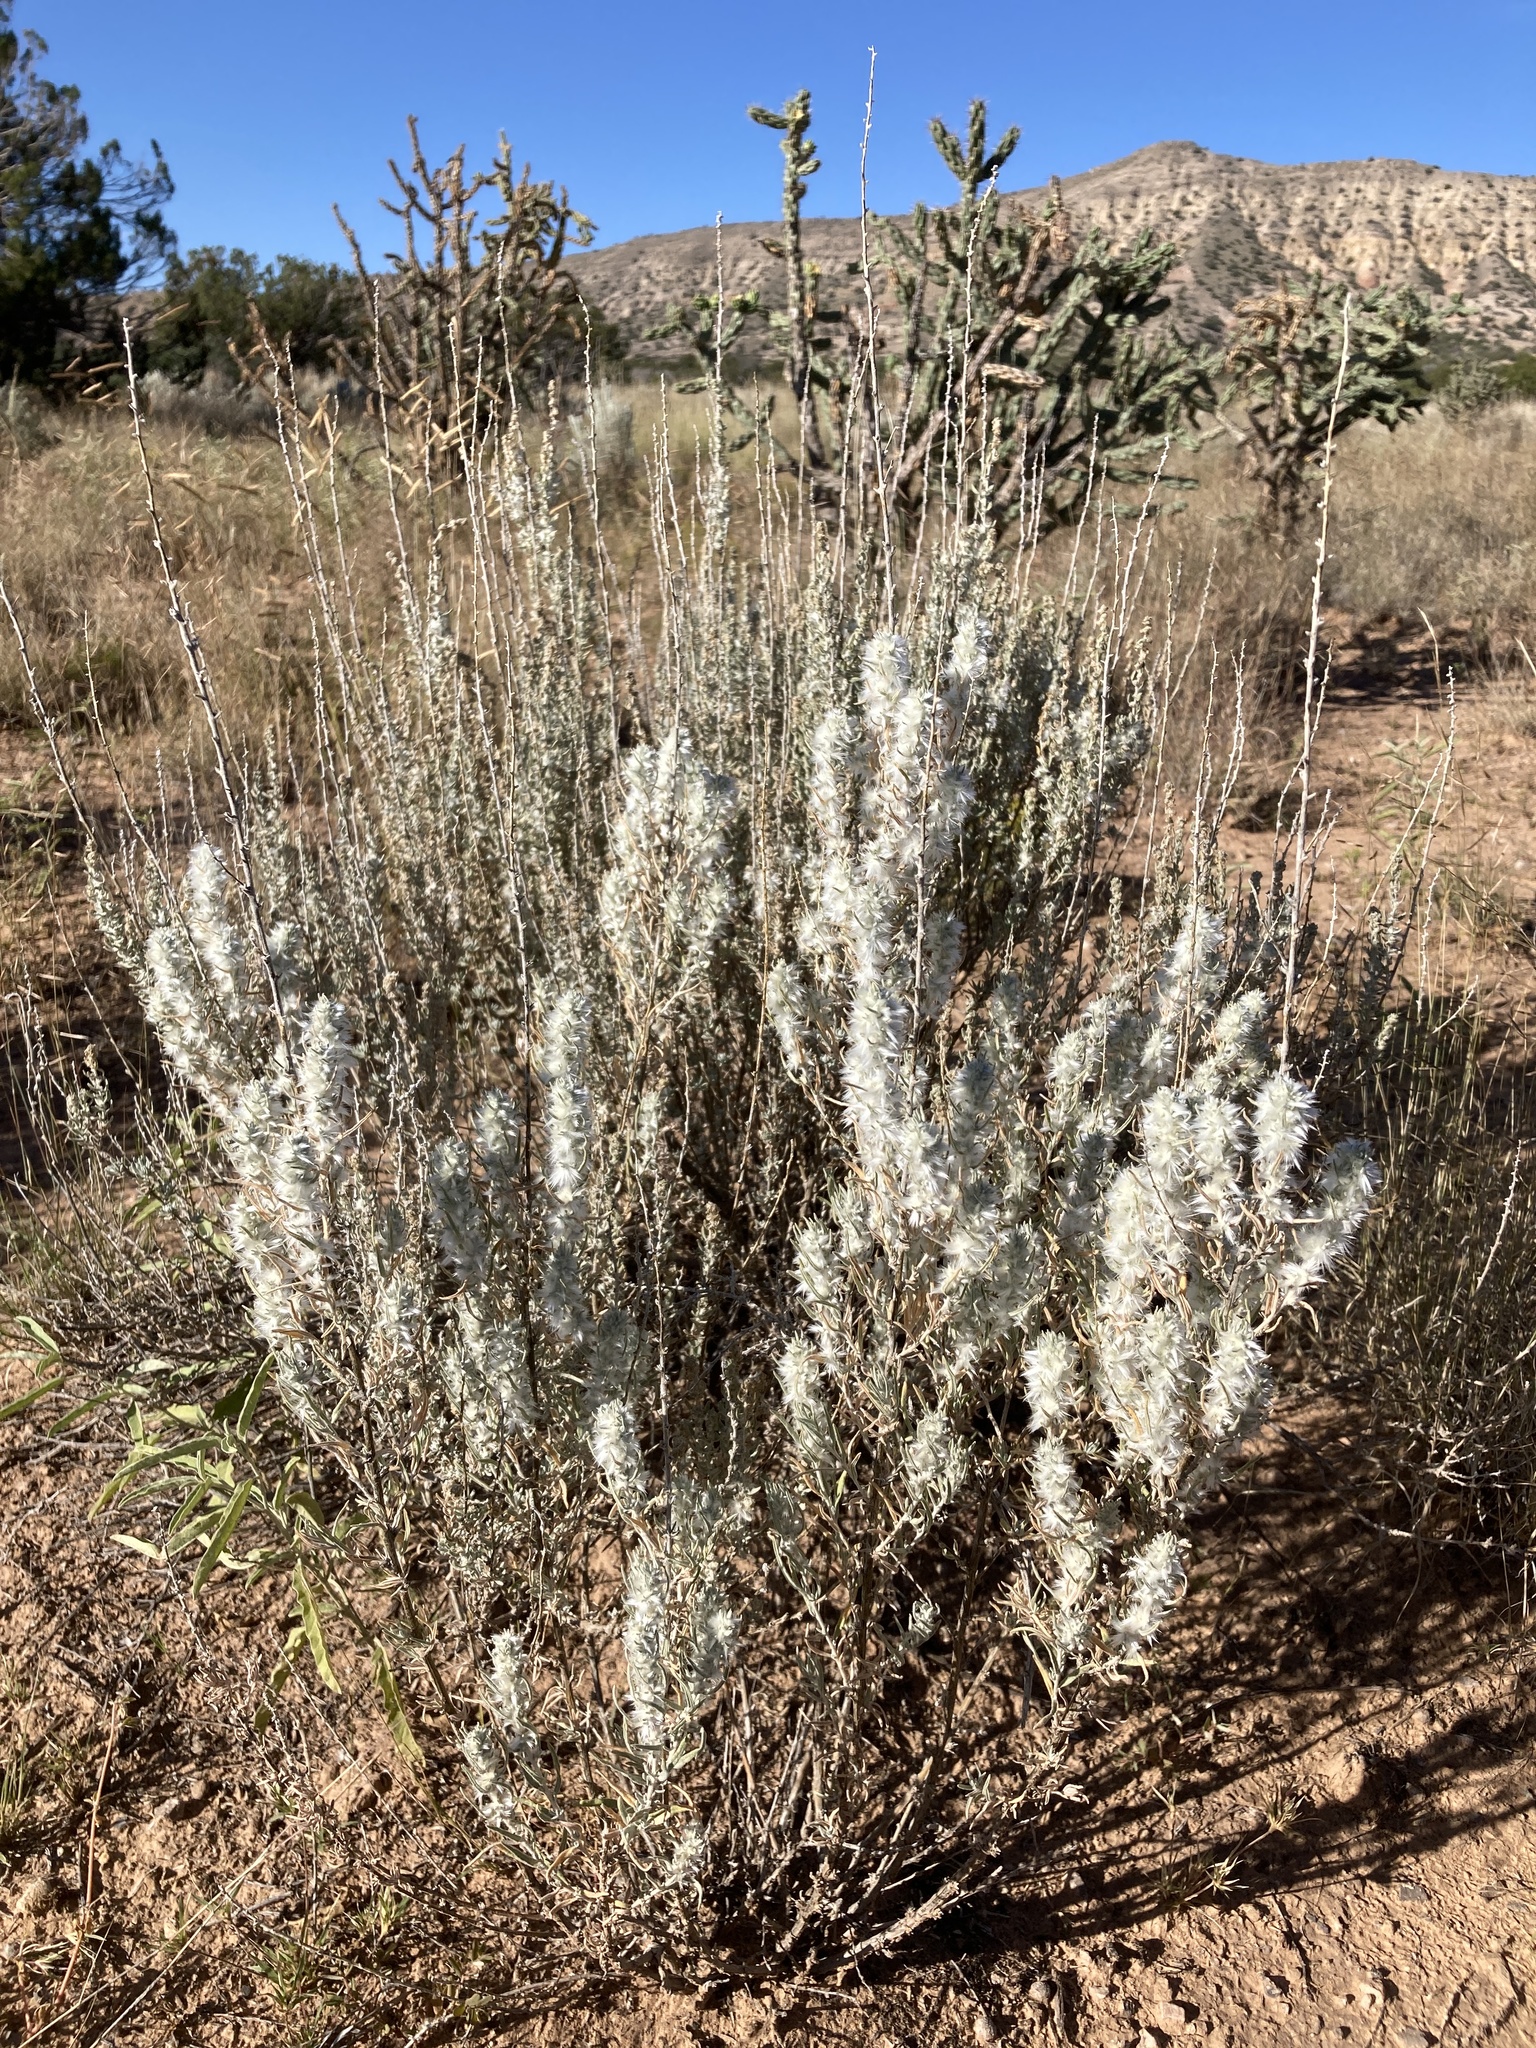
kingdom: Plantae
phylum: Tracheophyta
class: Magnoliopsida
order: Caryophyllales
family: Amaranthaceae
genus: Krascheninnikovia
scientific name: Krascheninnikovia lanata
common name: Winterfat
